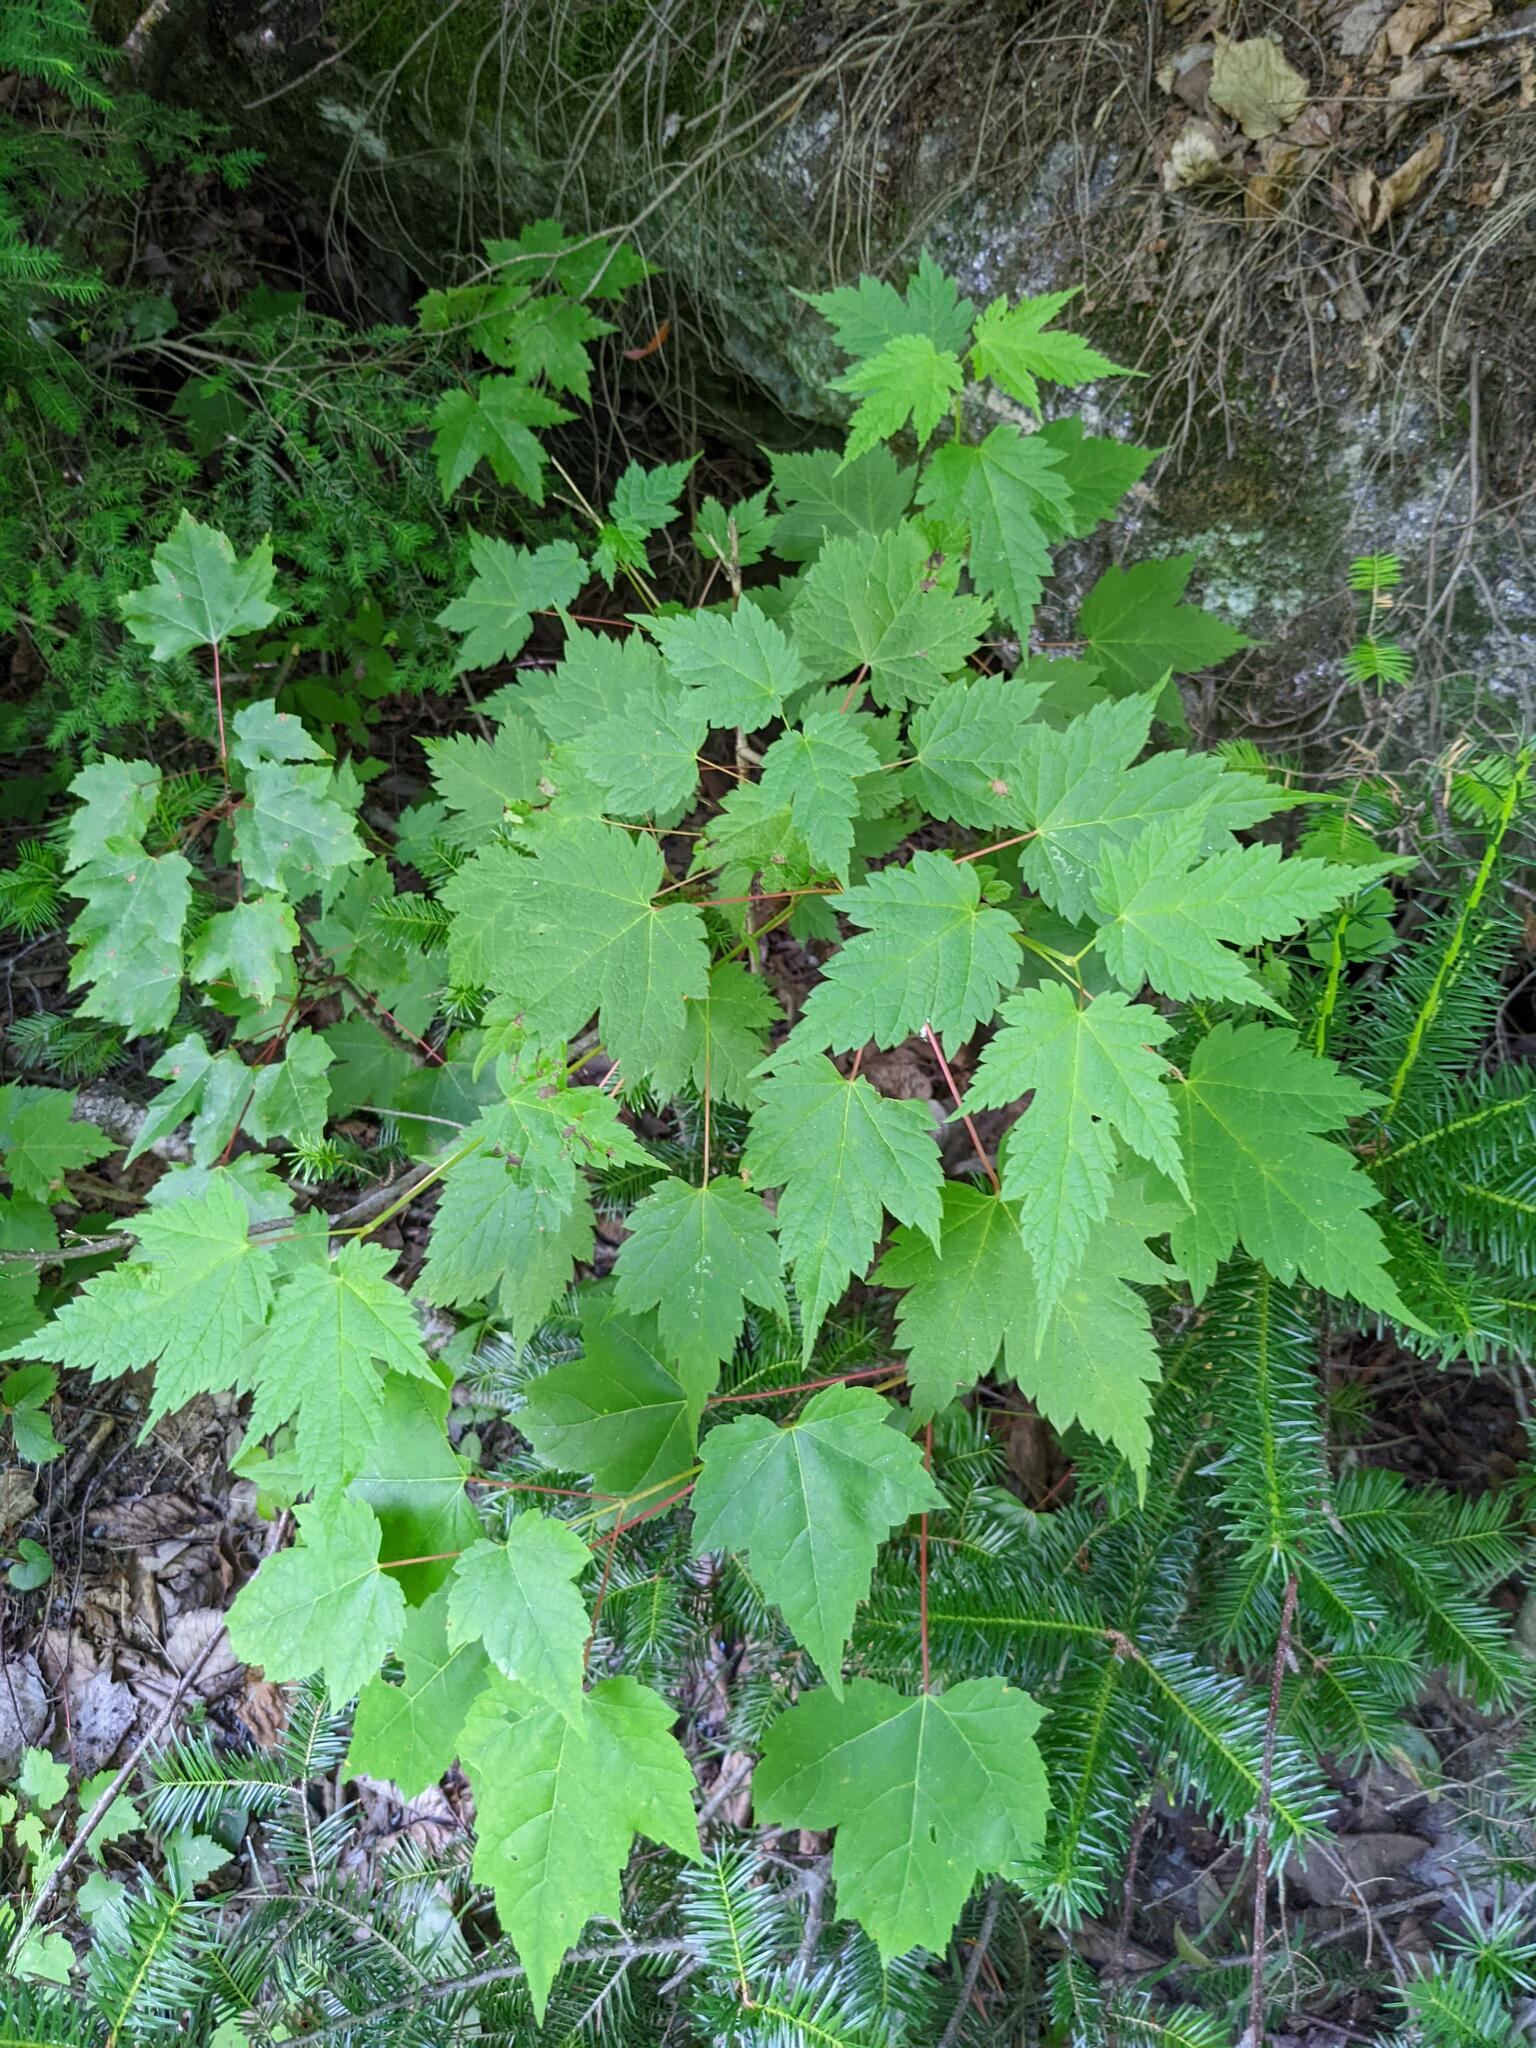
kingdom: Plantae
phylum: Tracheophyta
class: Magnoliopsida
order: Sapindales
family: Sapindaceae
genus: Acer
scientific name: Acer spicatum
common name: Mountain maple
